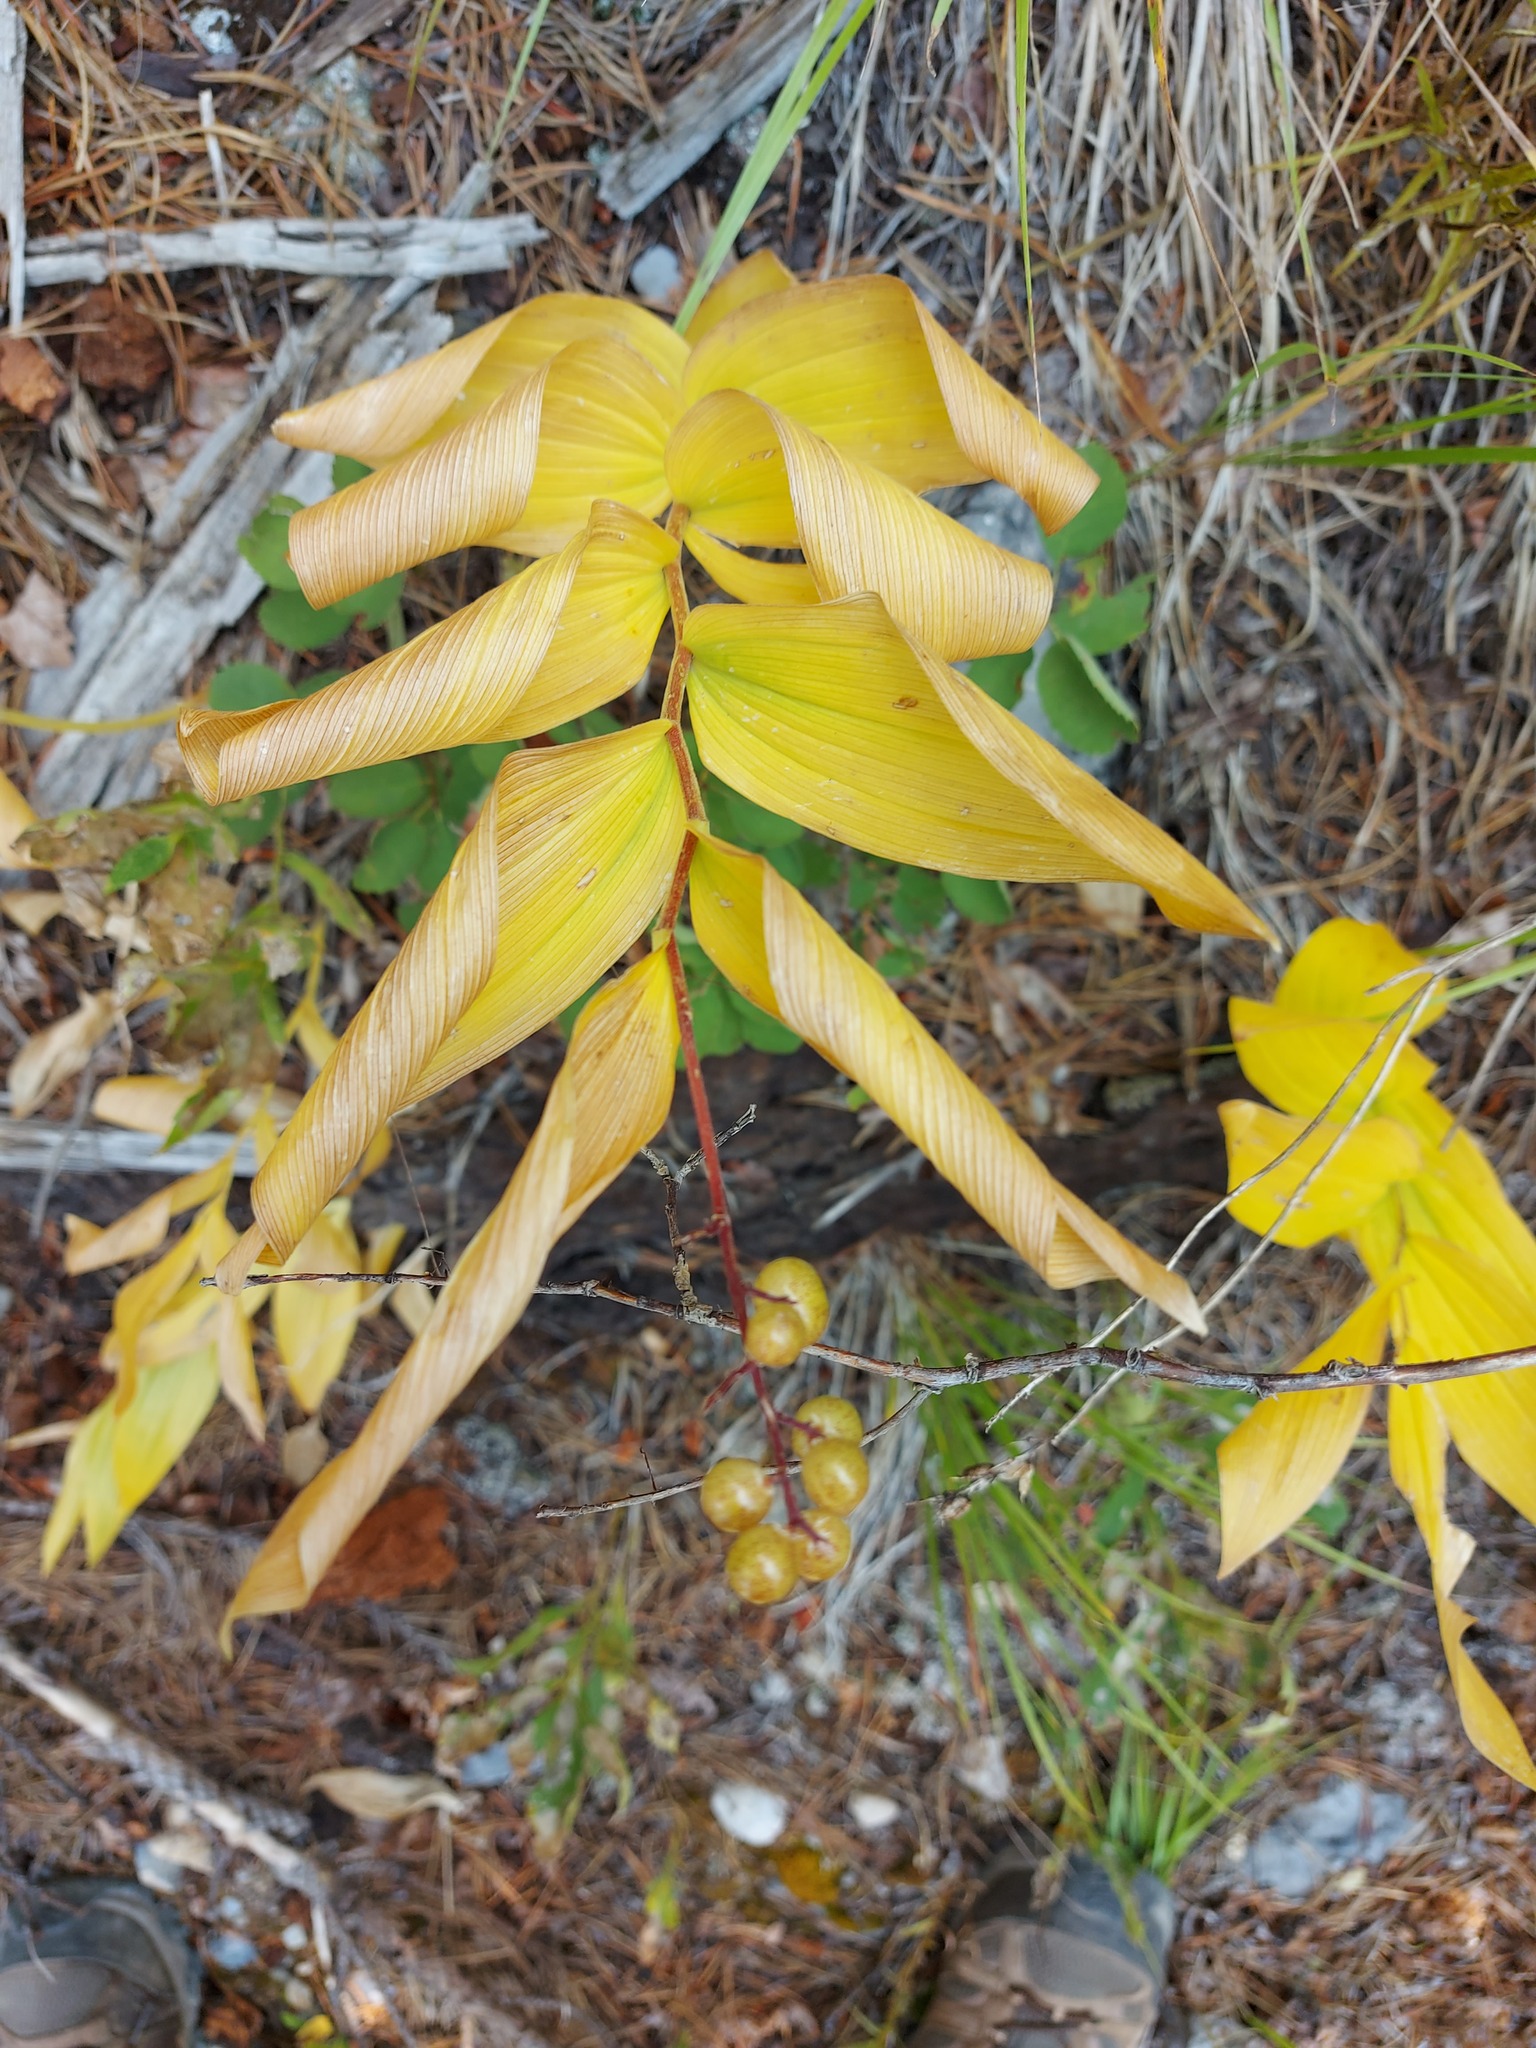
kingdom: Plantae
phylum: Tracheophyta
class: Liliopsida
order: Asparagales
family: Asparagaceae
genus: Maianthemum
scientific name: Maianthemum racemosum
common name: False spikenard
